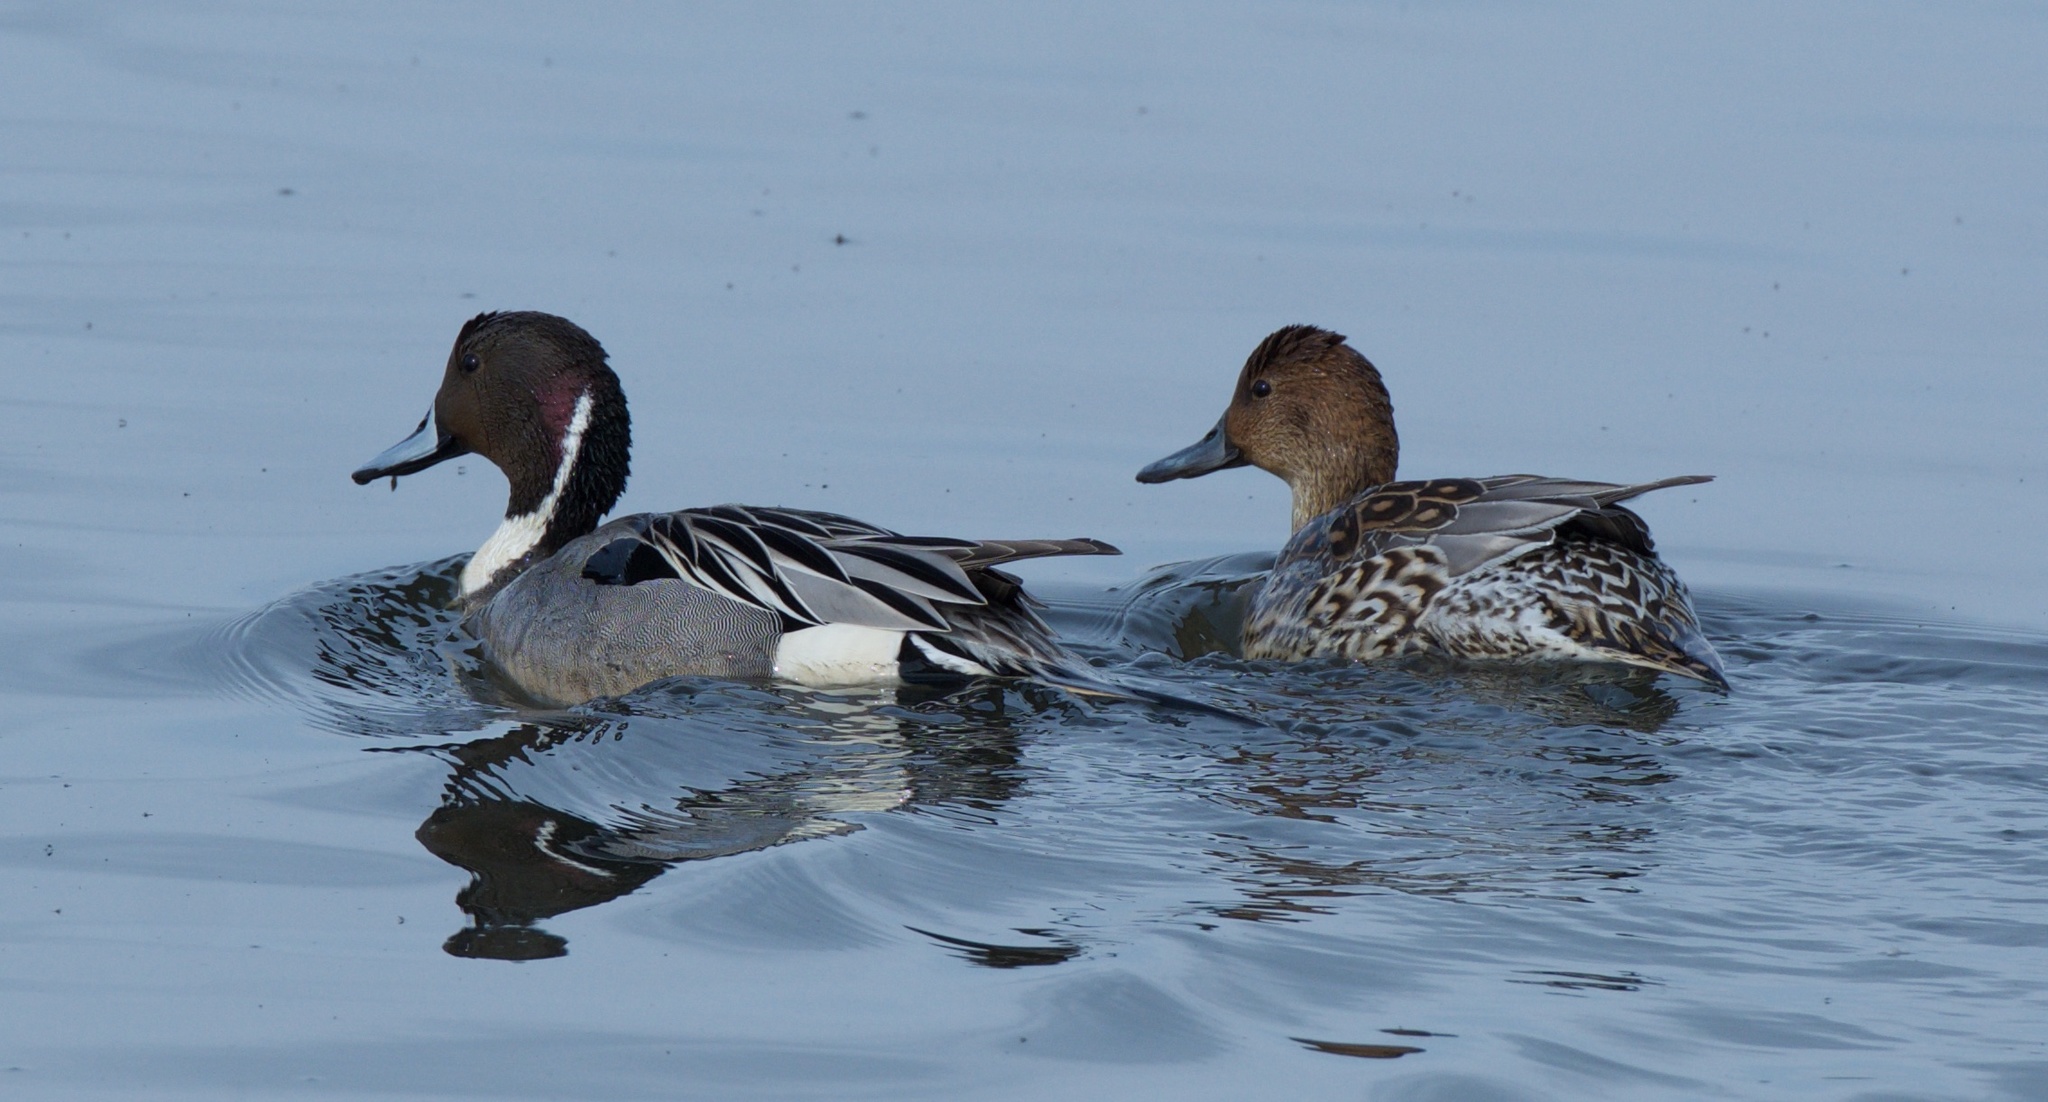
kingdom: Animalia
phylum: Chordata
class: Aves
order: Anseriformes
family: Anatidae
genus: Anas
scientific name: Anas acuta
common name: Northern pintail
